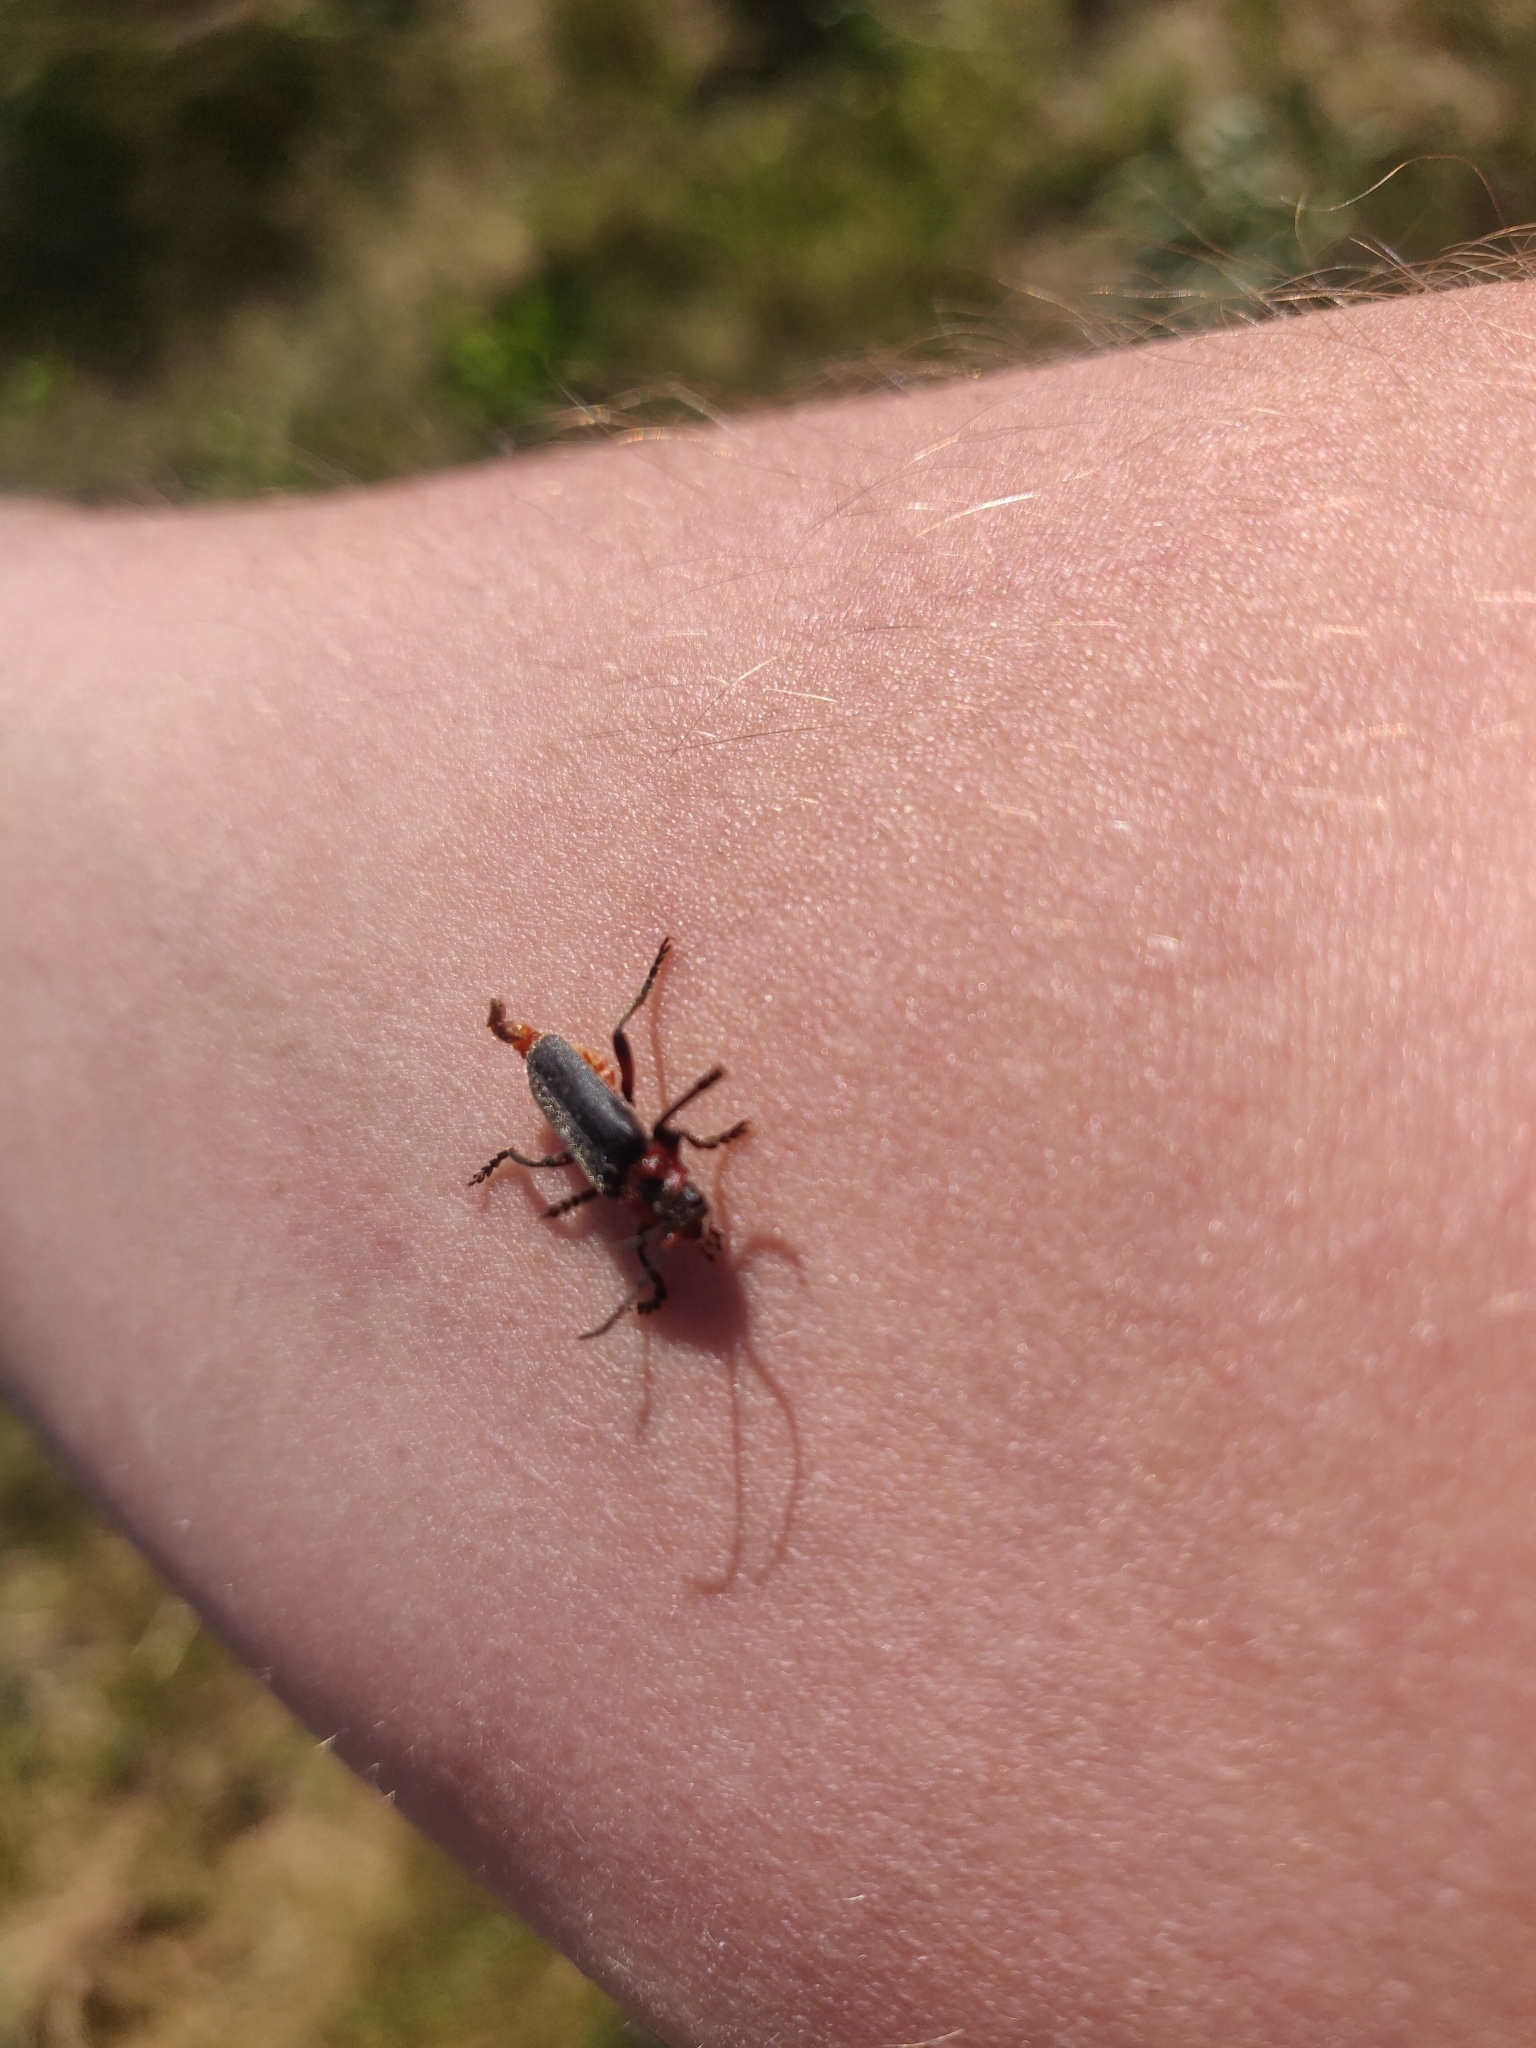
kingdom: Animalia
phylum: Arthropoda
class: Insecta
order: Coleoptera
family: Cantharidae
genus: Cantharis
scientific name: Cantharis rustica
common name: Soldier beetle
